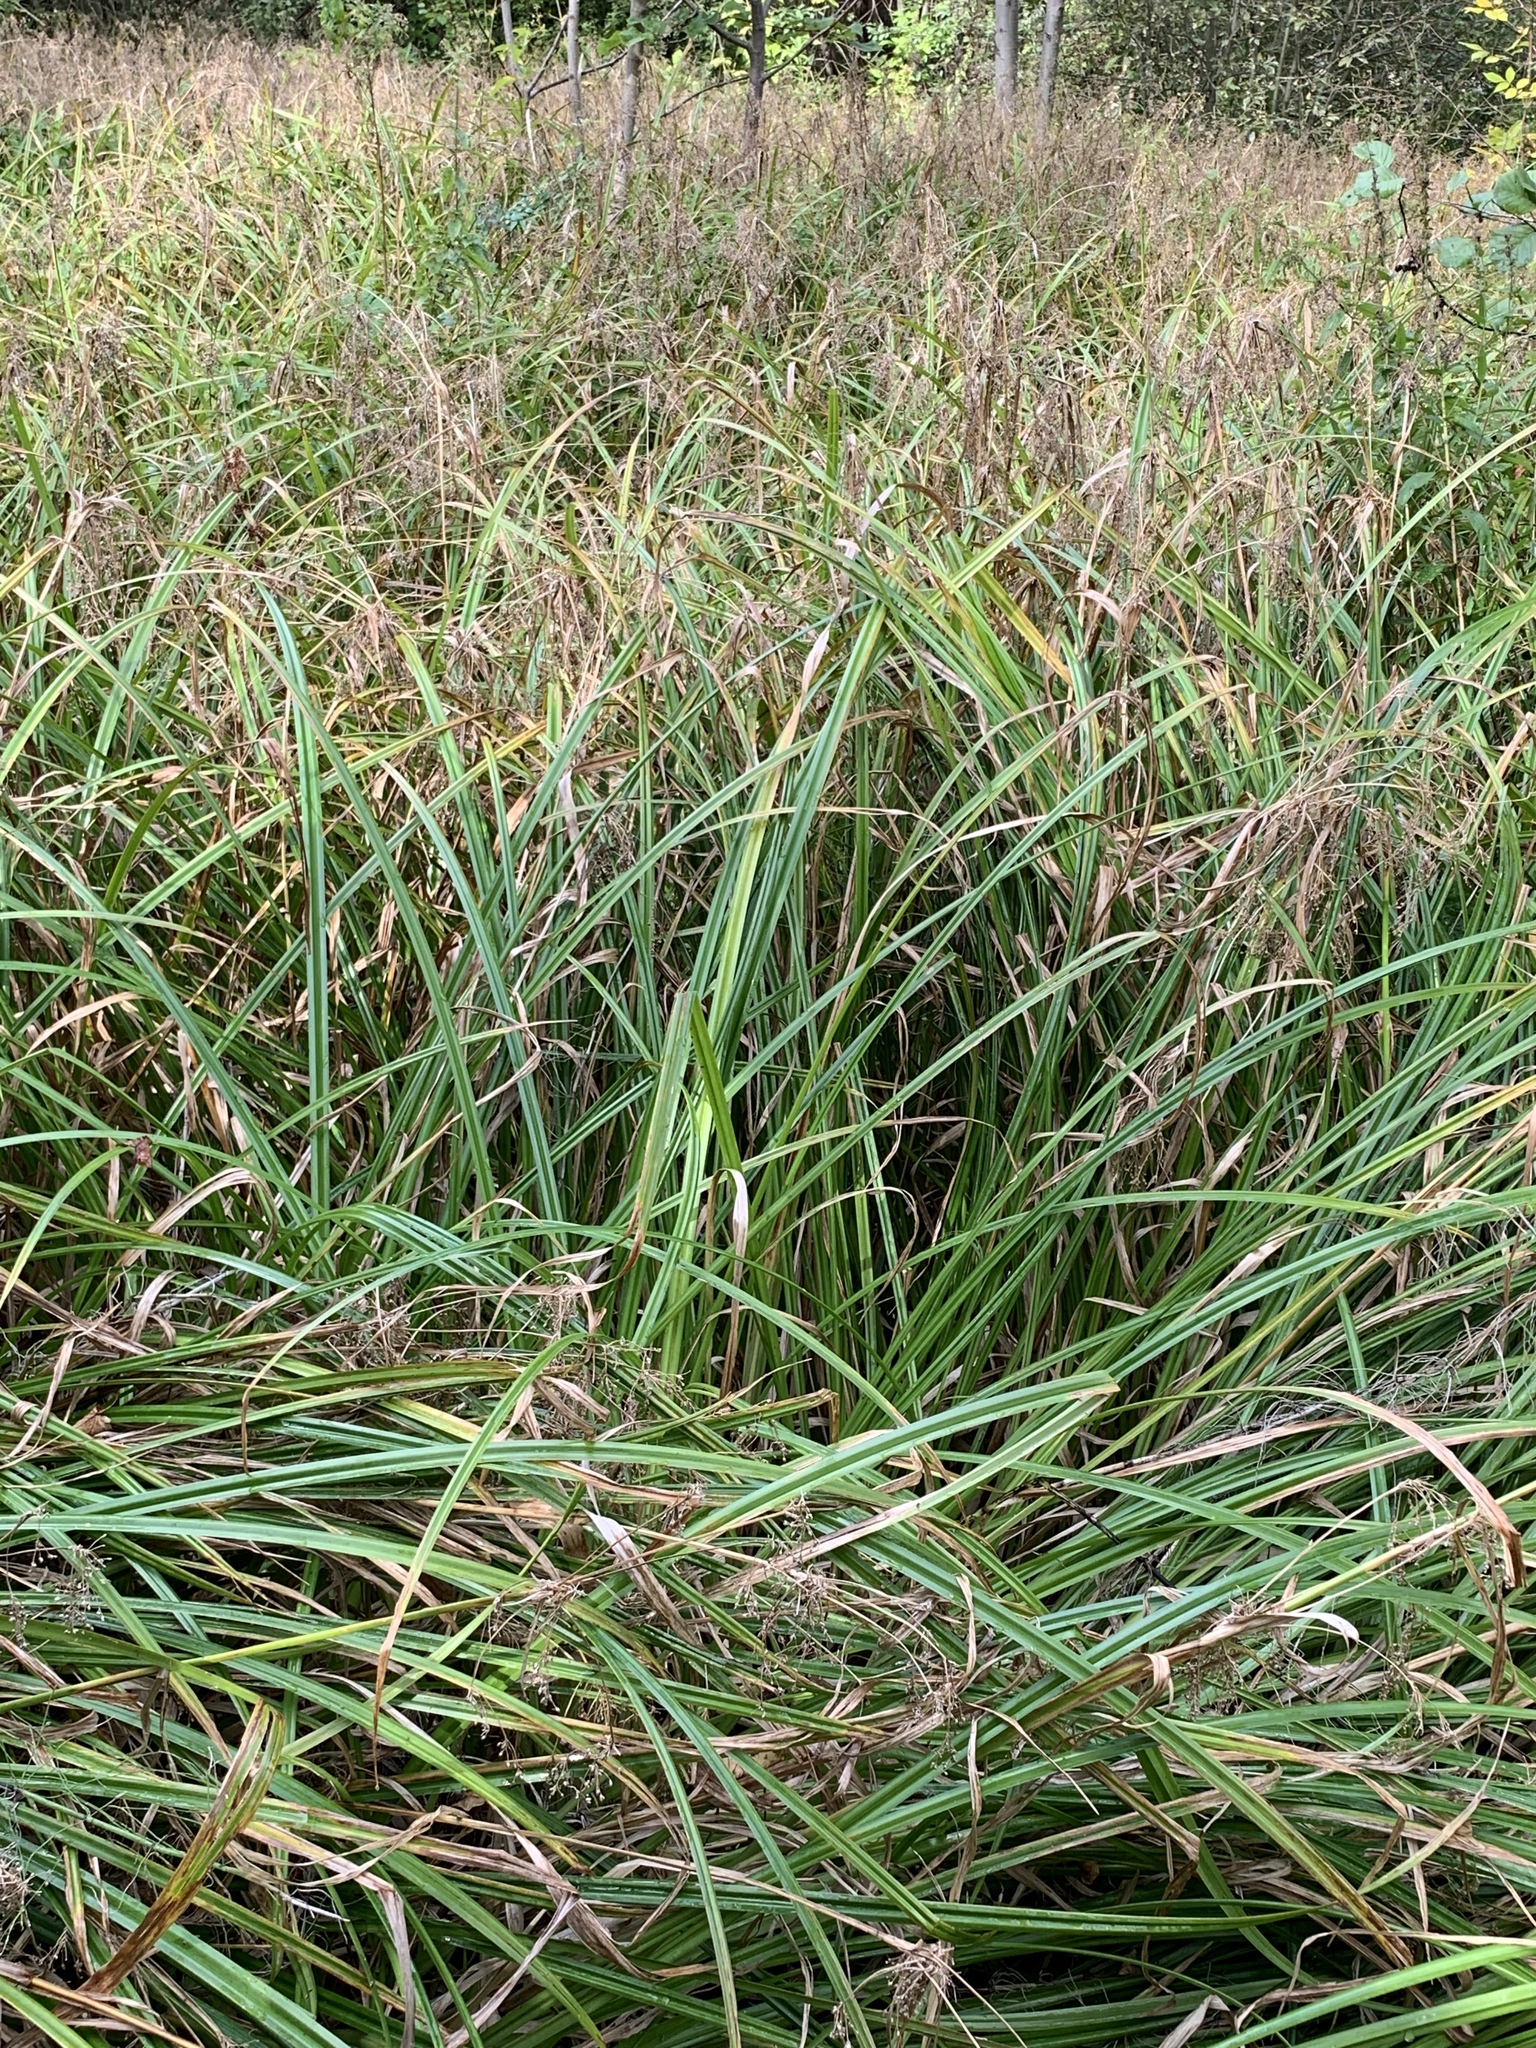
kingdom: Plantae
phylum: Tracheophyta
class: Liliopsida
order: Poales
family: Cyperaceae
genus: Scirpus
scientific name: Scirpus sylvaticus
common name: Wood club-rush
